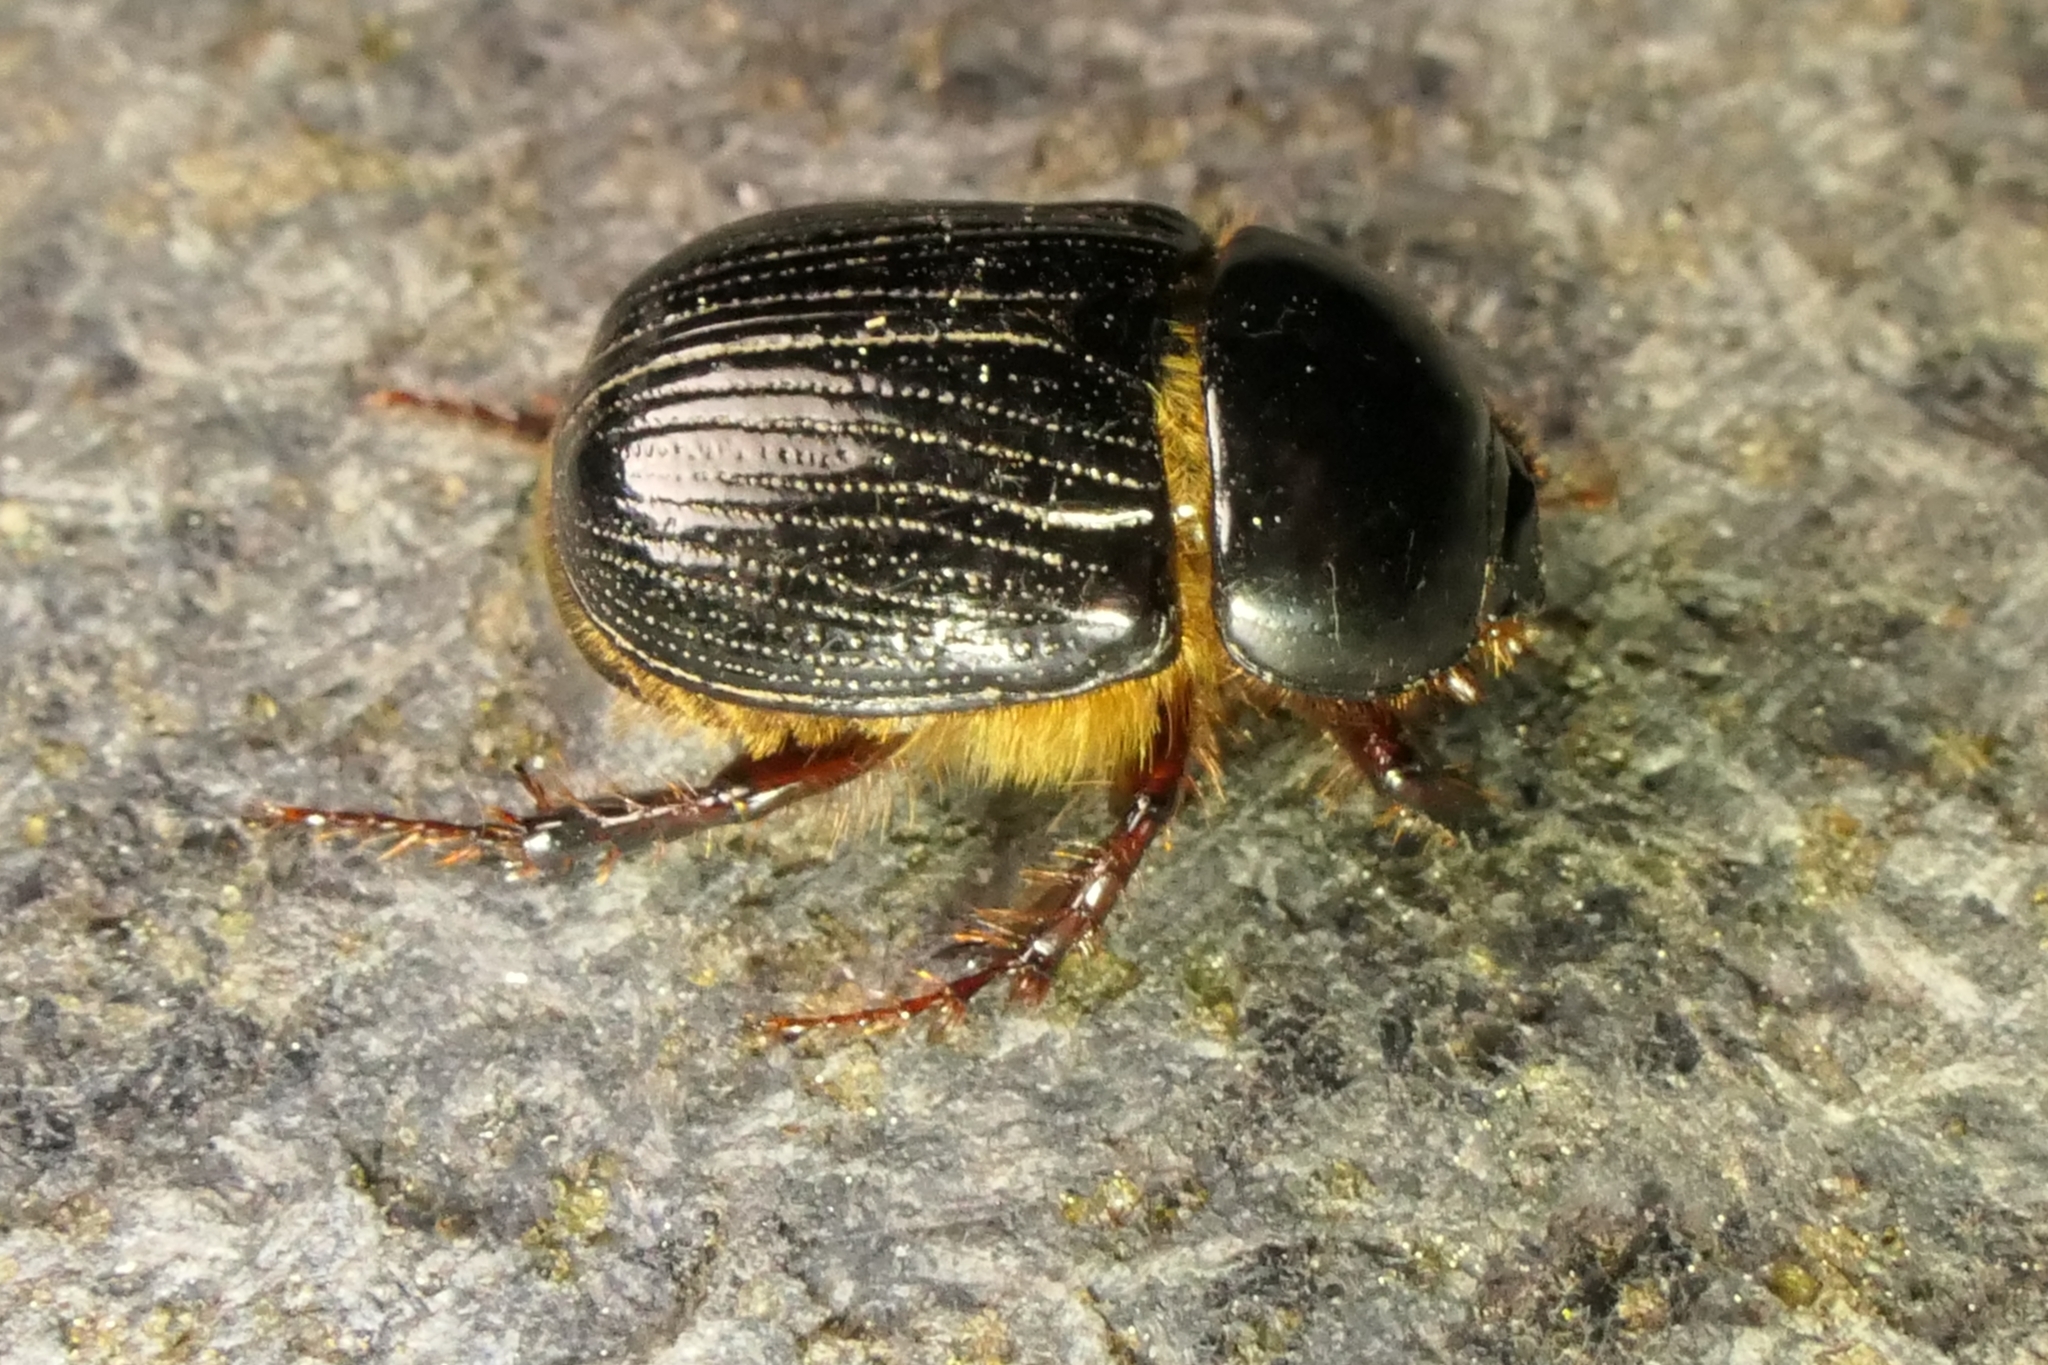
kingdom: Animalia
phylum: Arthropoda
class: Insecta
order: Coleoptera
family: Scarabaeidae
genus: Adoryphorus
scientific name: Adoryphorus couloni
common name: Redheaded pasture cockchafer
